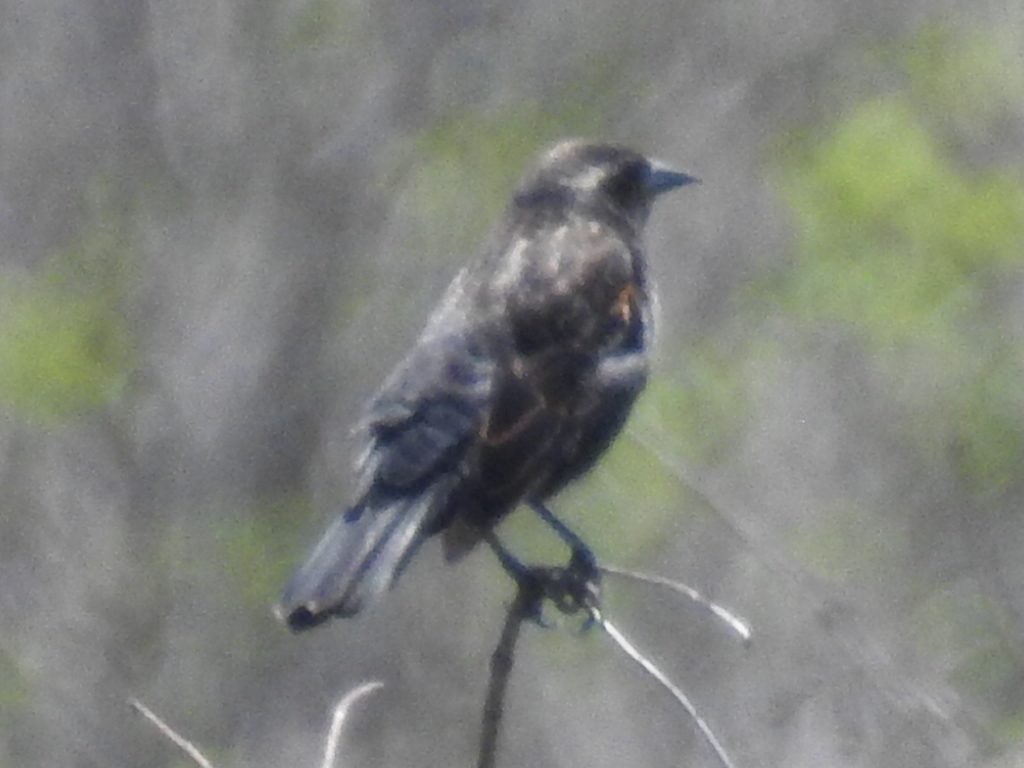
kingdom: Animalia
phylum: Chordata
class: Aves
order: Passeriformes
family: Icteridae
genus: Agelaius
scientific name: Agelaius phoeniceus
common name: Red-winged blackbird
